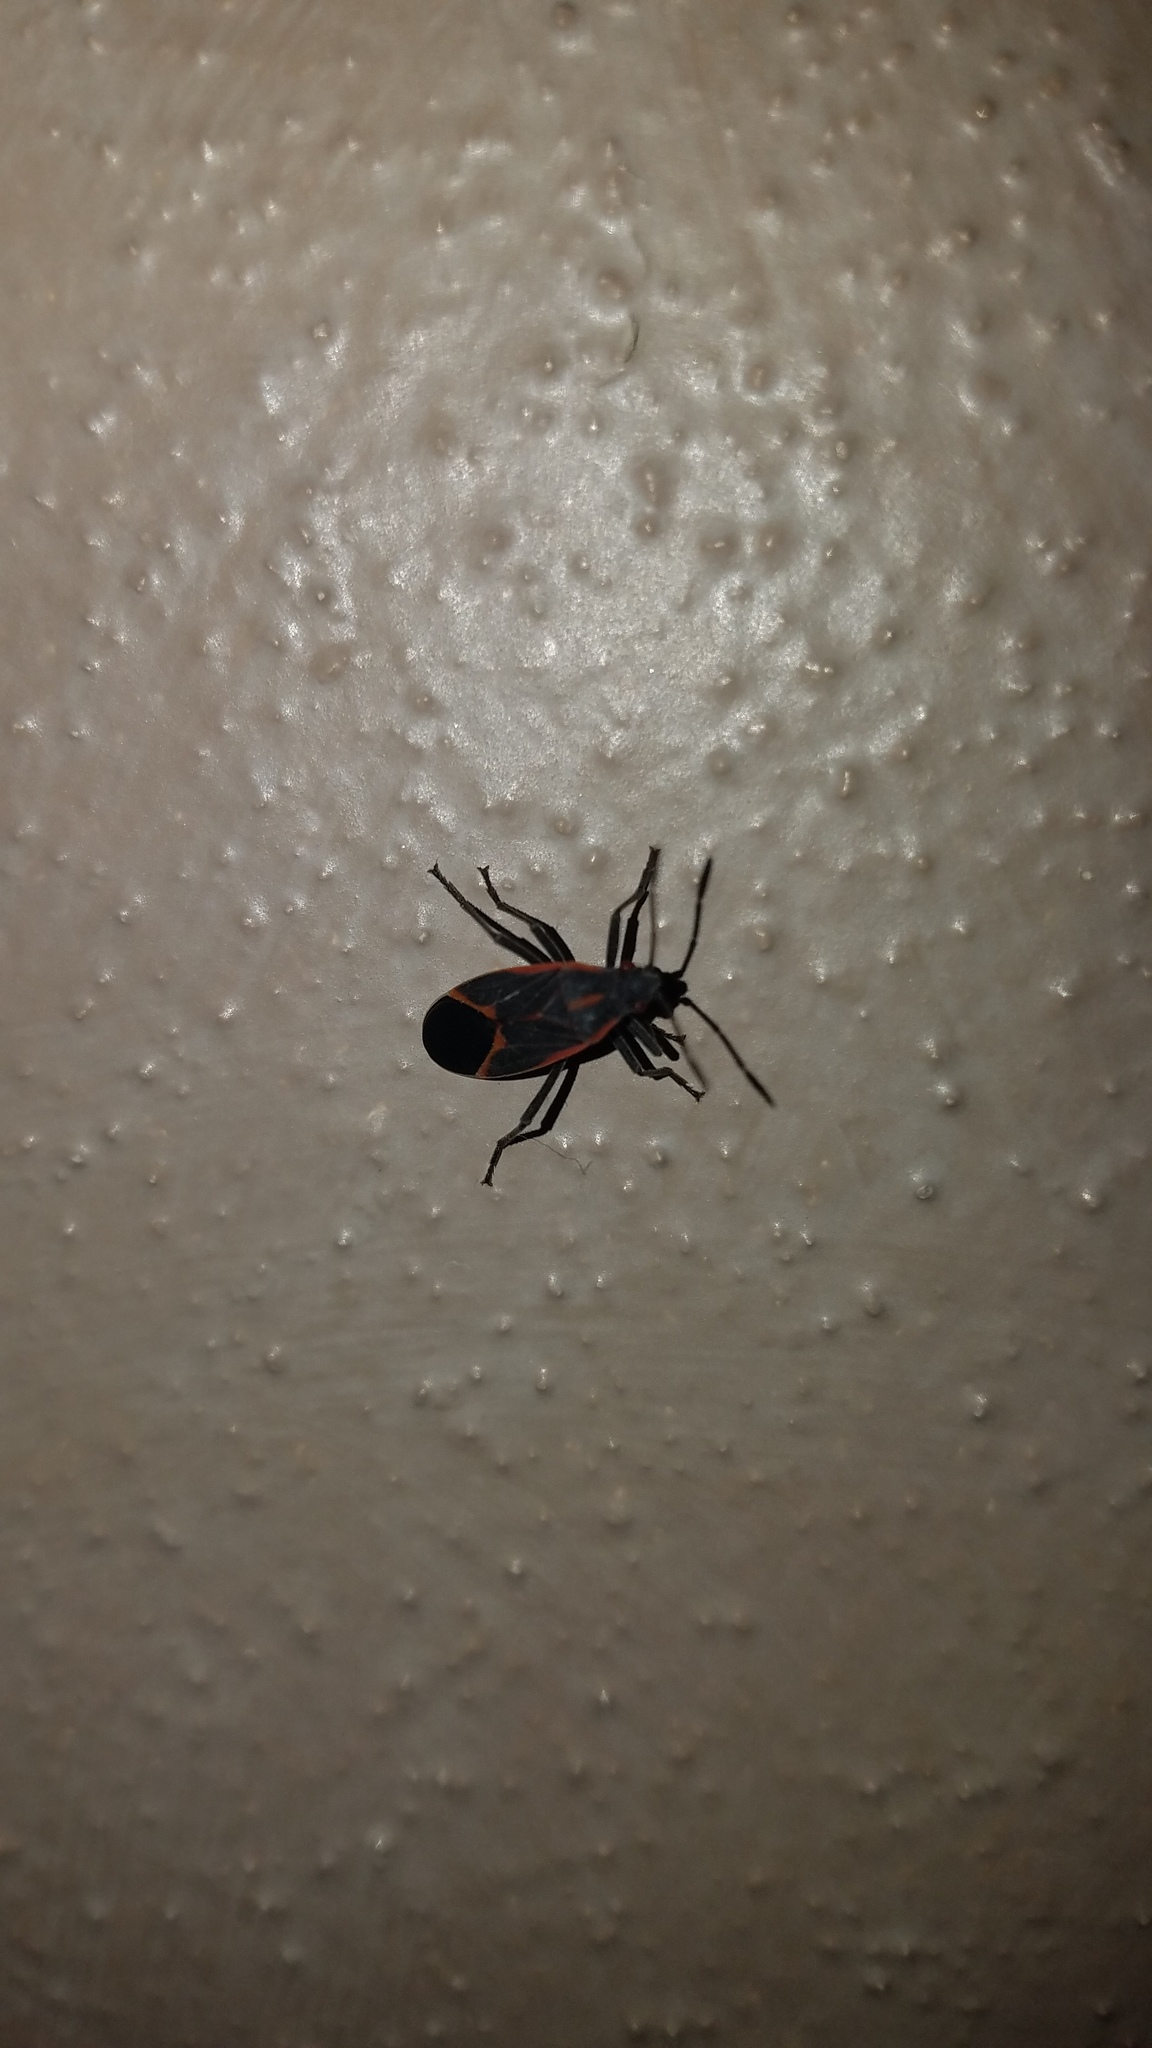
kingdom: Animalia
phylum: Arthropoda
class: Insecta
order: Hemiptera
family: Rhopalidae
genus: Boisea
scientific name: Boisea trivittata
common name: Boxelder bug
